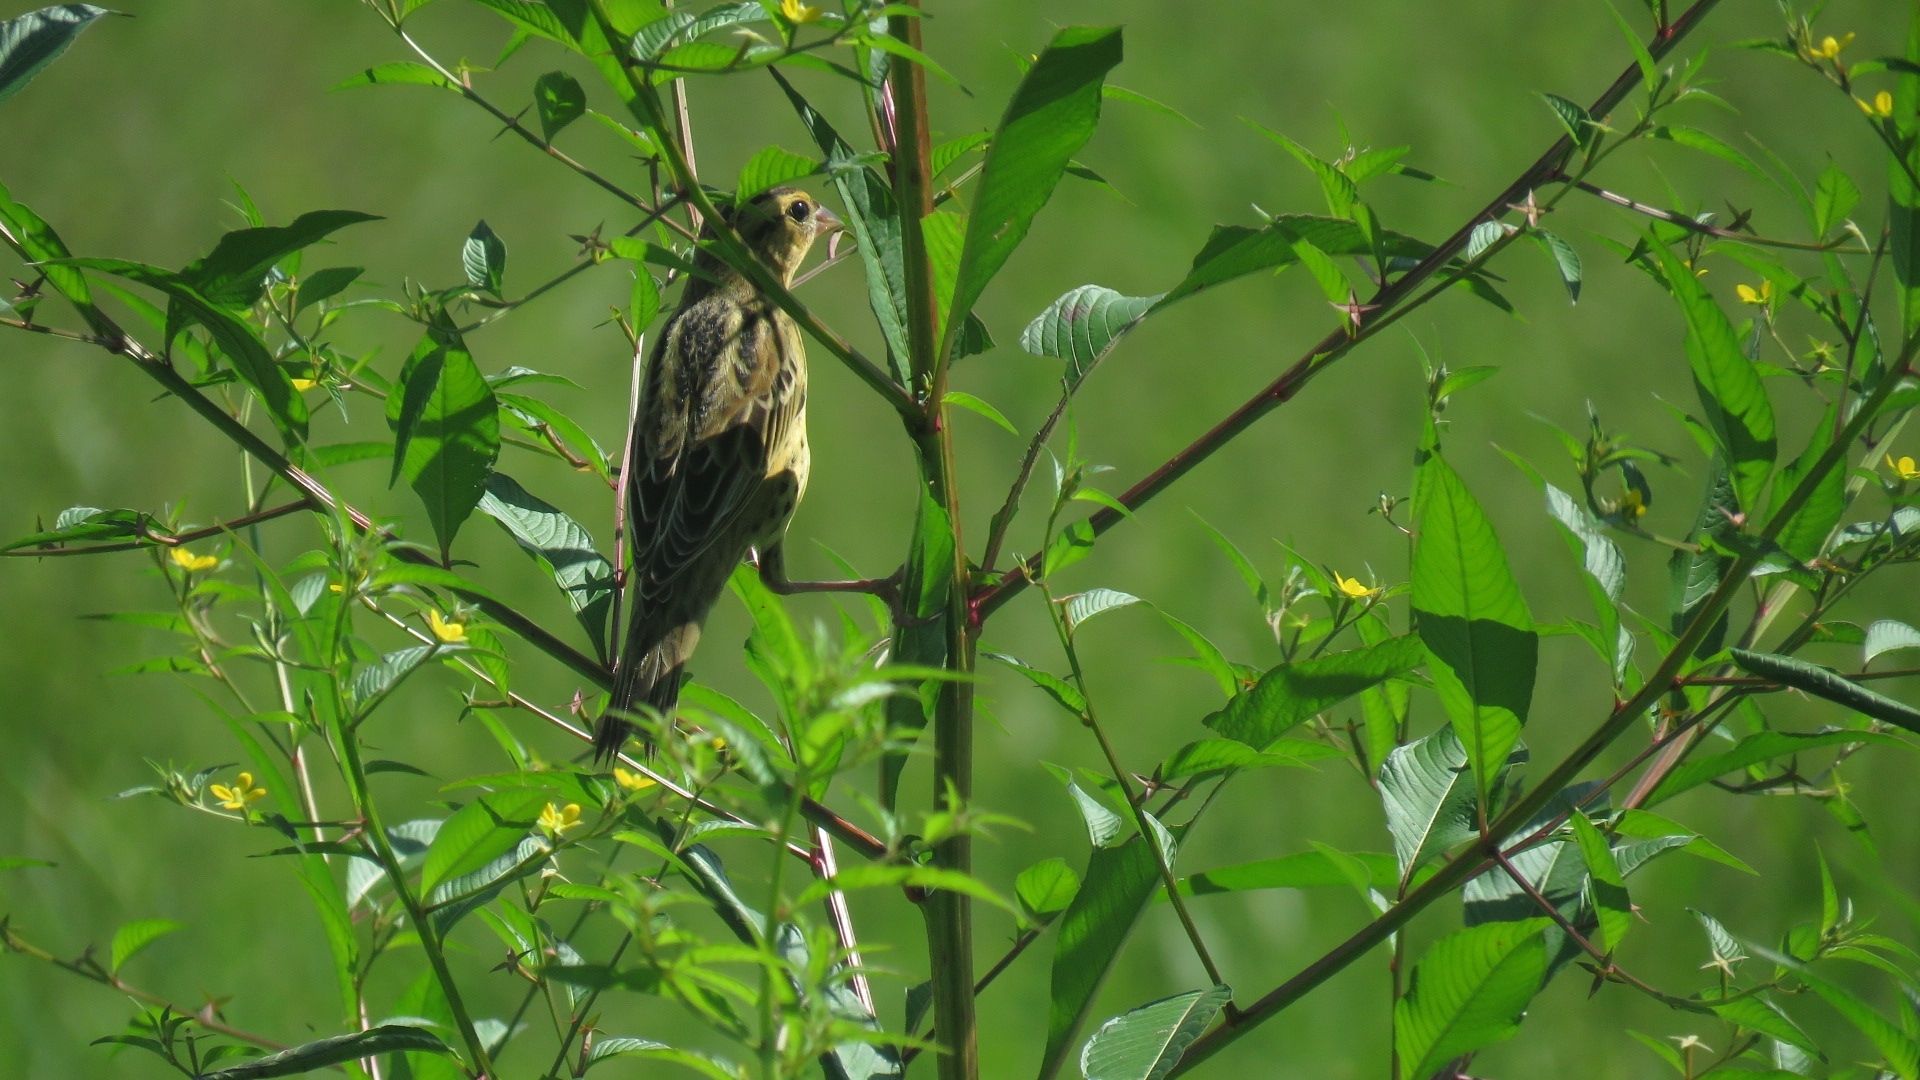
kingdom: Animalia
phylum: Chordata
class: Aves
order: Passeriformes
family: Icteridae
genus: Dolichonyx
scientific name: Dolichonyx oryzivorus
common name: Bobolink
